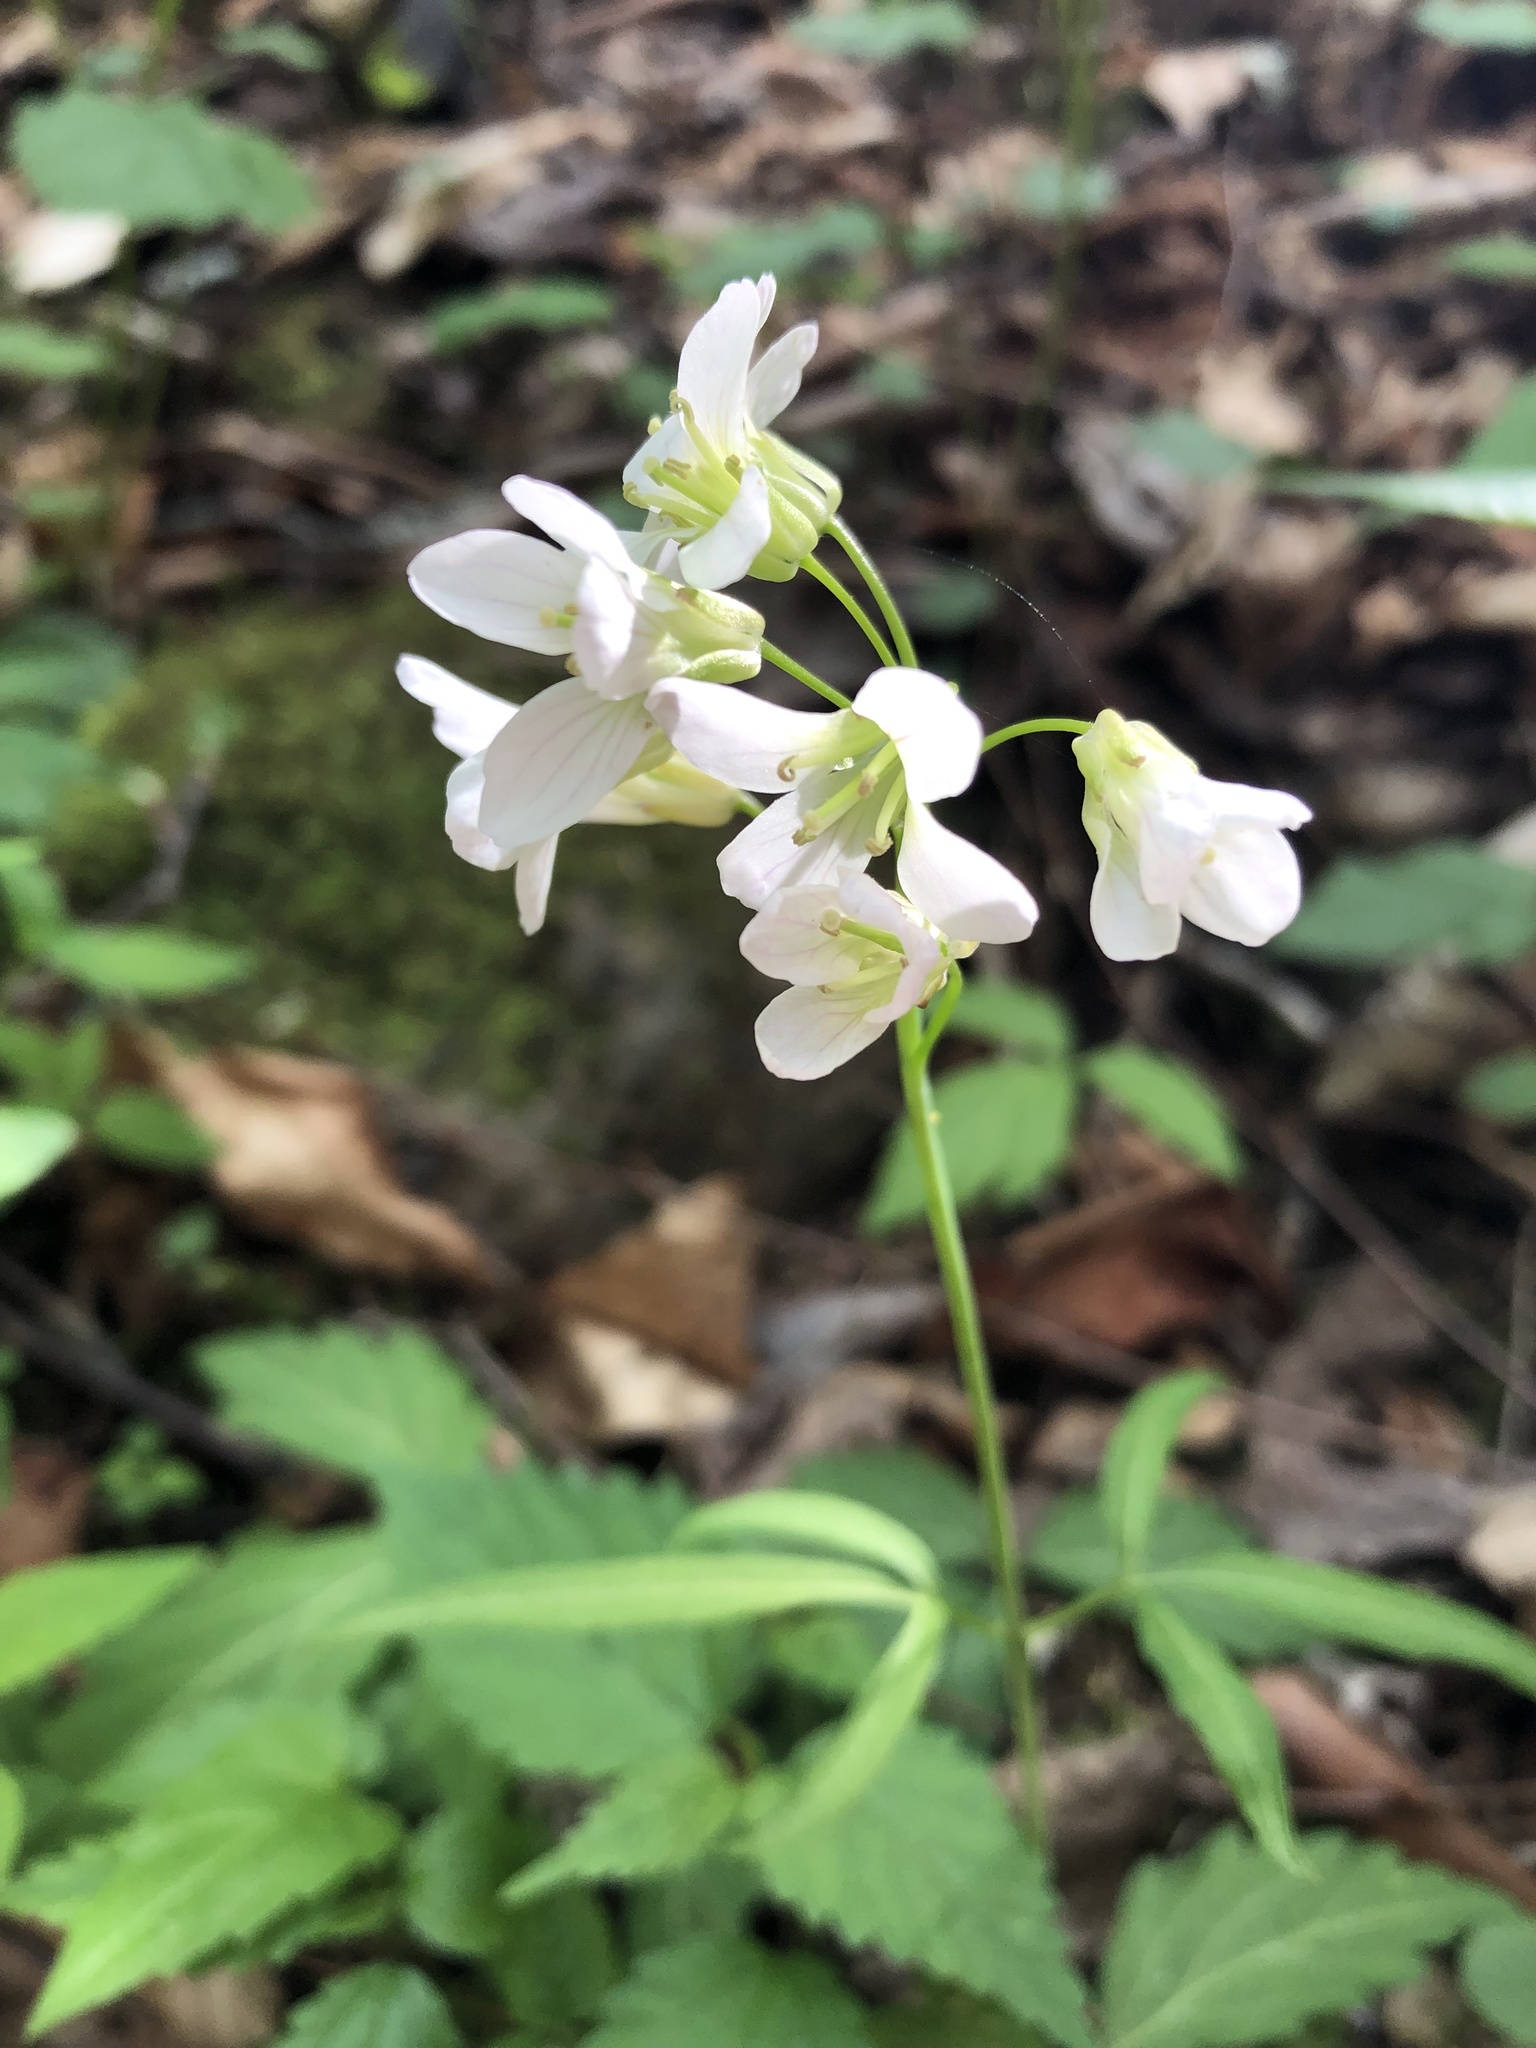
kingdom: Plantae
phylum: Tracheophyta
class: Magnoliopsida
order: Brassicales
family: Brassicaceae
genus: Cardamine
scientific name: Cardamine diphylla
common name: Broad-leaved toothwort
